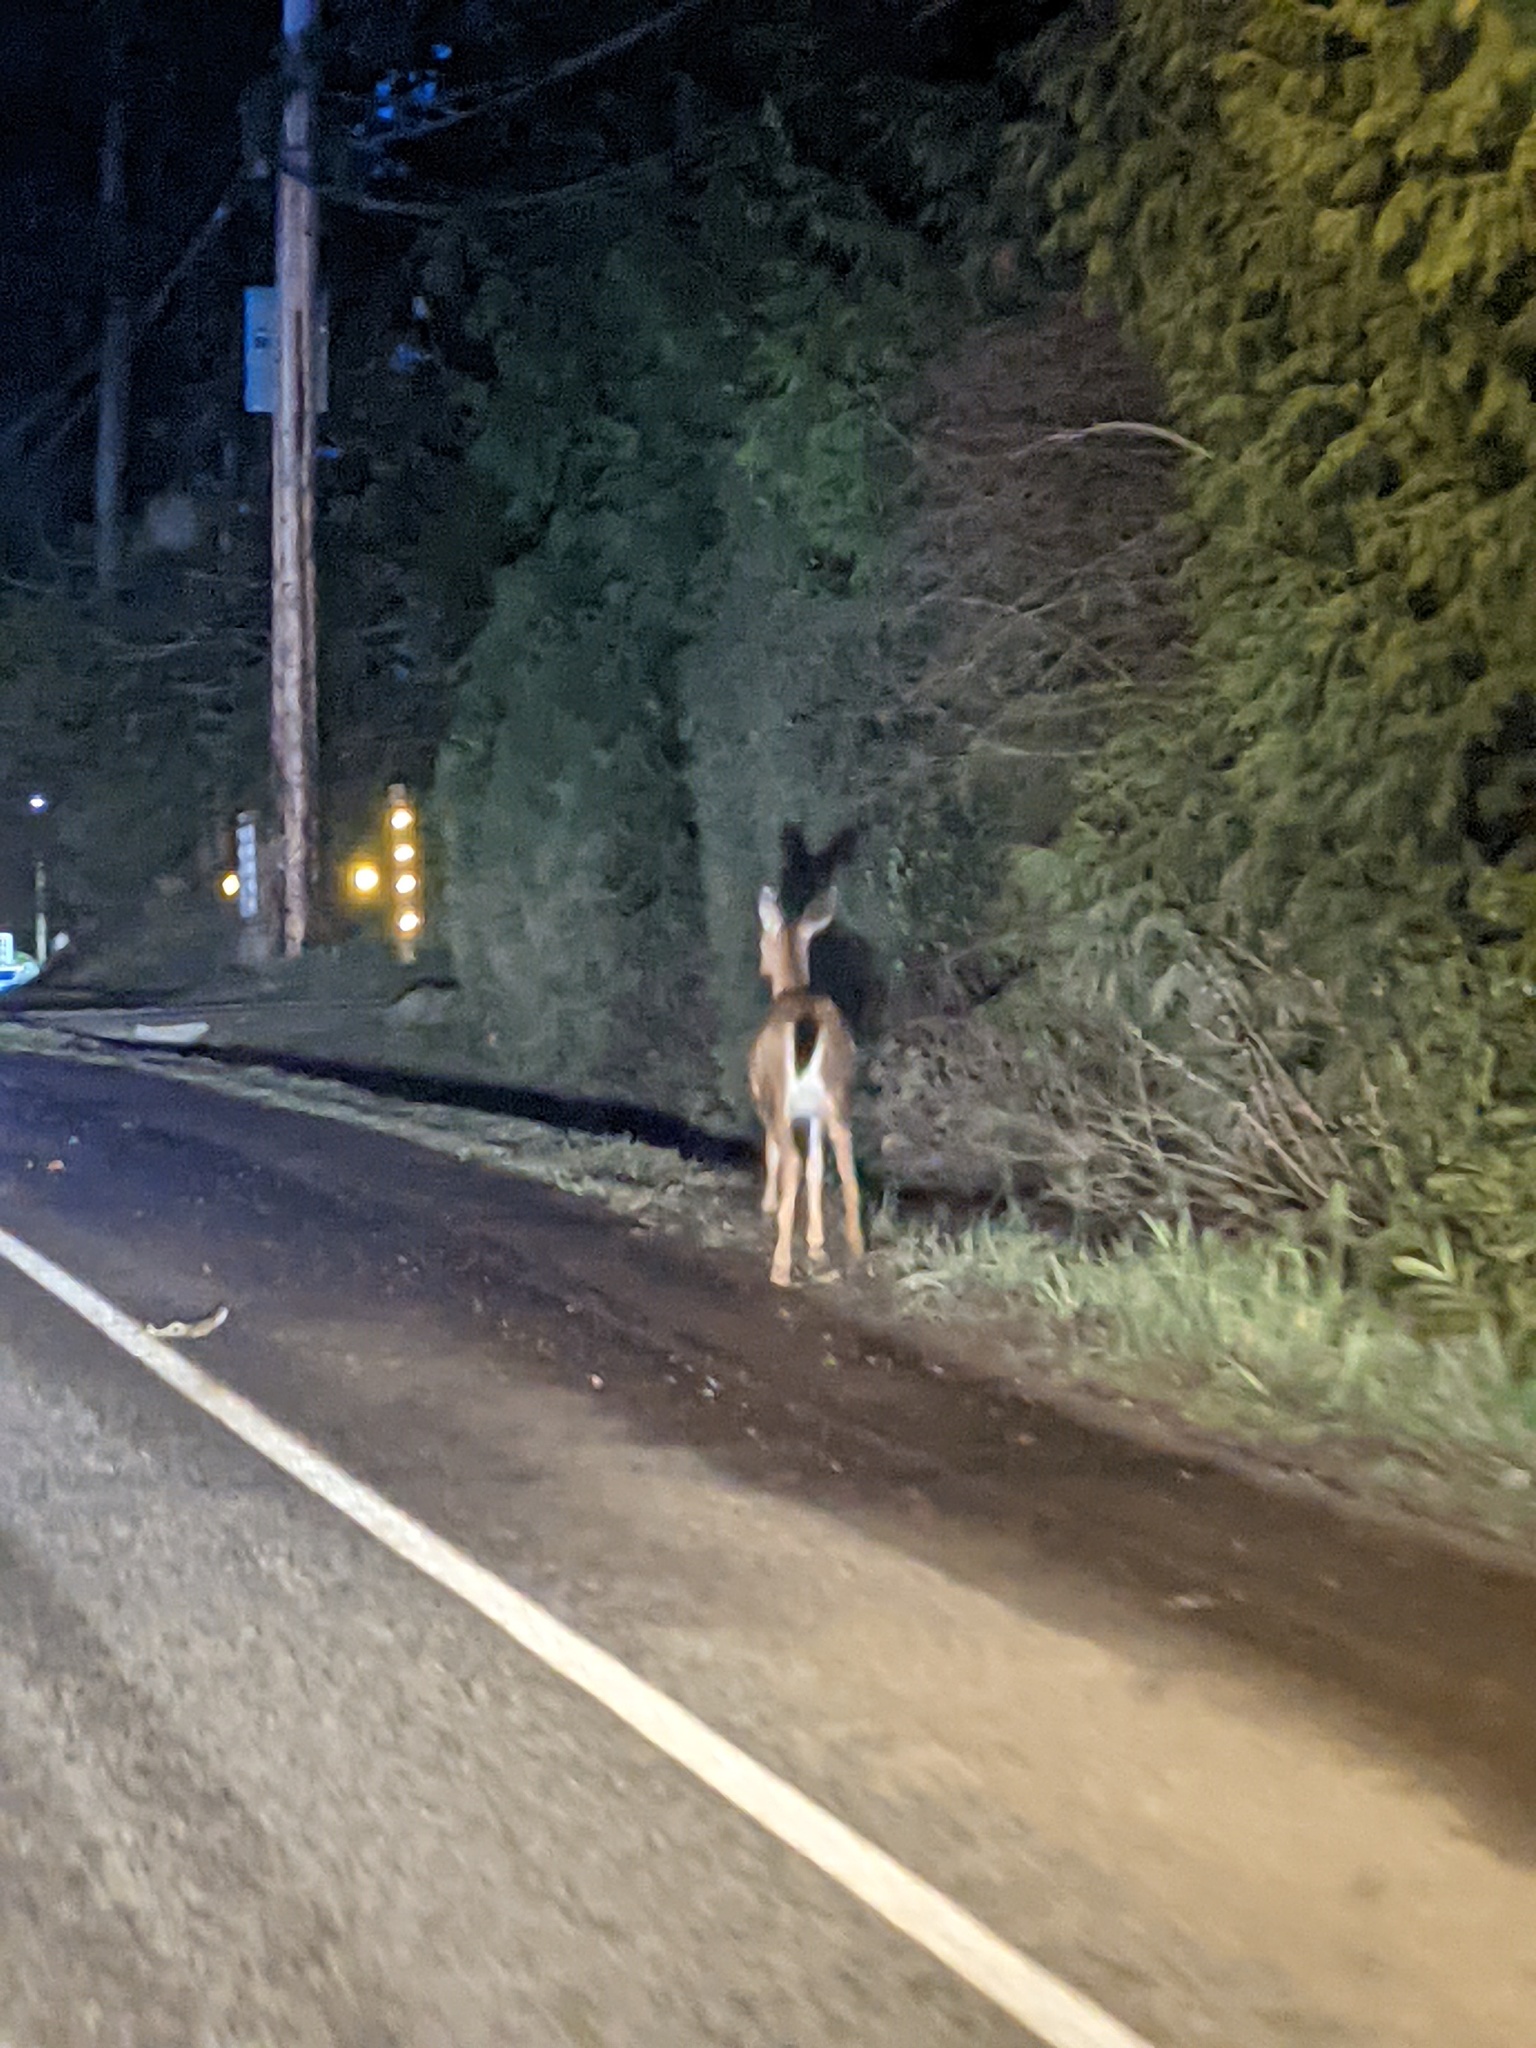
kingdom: Animalia
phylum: Chordata
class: Mammalia
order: Artiodactyla
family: Cervidae
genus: Odocoileus
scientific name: Odocoileus hemionus
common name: Mule deer
